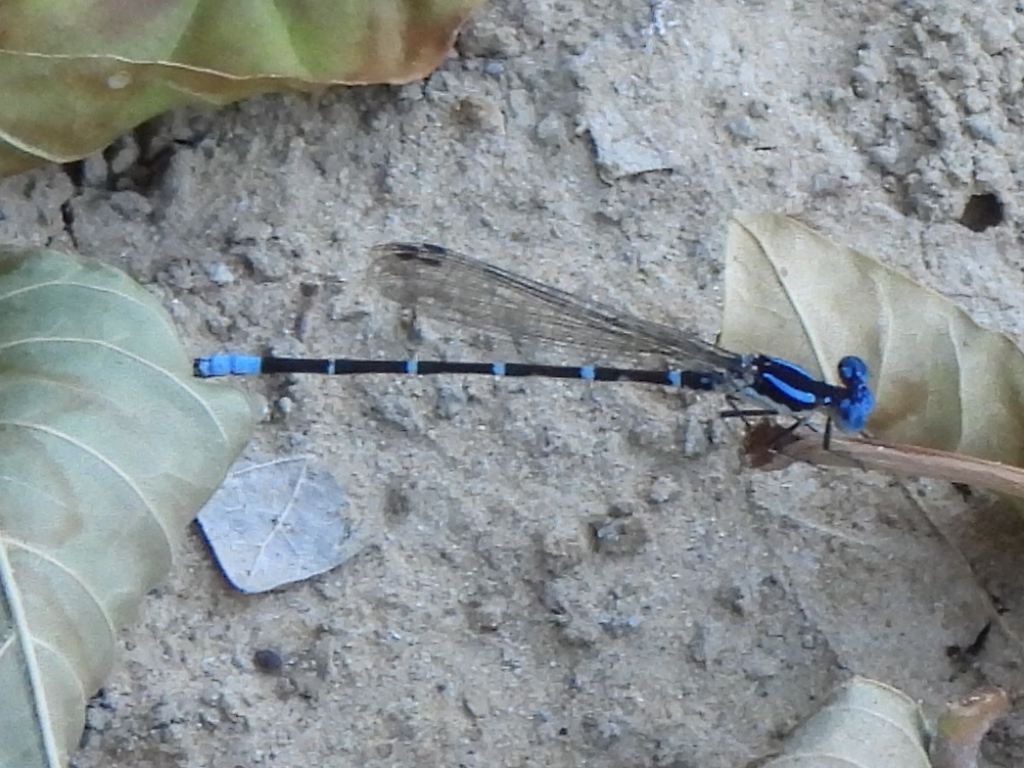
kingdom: Animalia
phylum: Arthropoda
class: Insecta
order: Odonata
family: Coenagrionidae
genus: Argia
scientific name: Argia sedula
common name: Blue-ringed dancer
